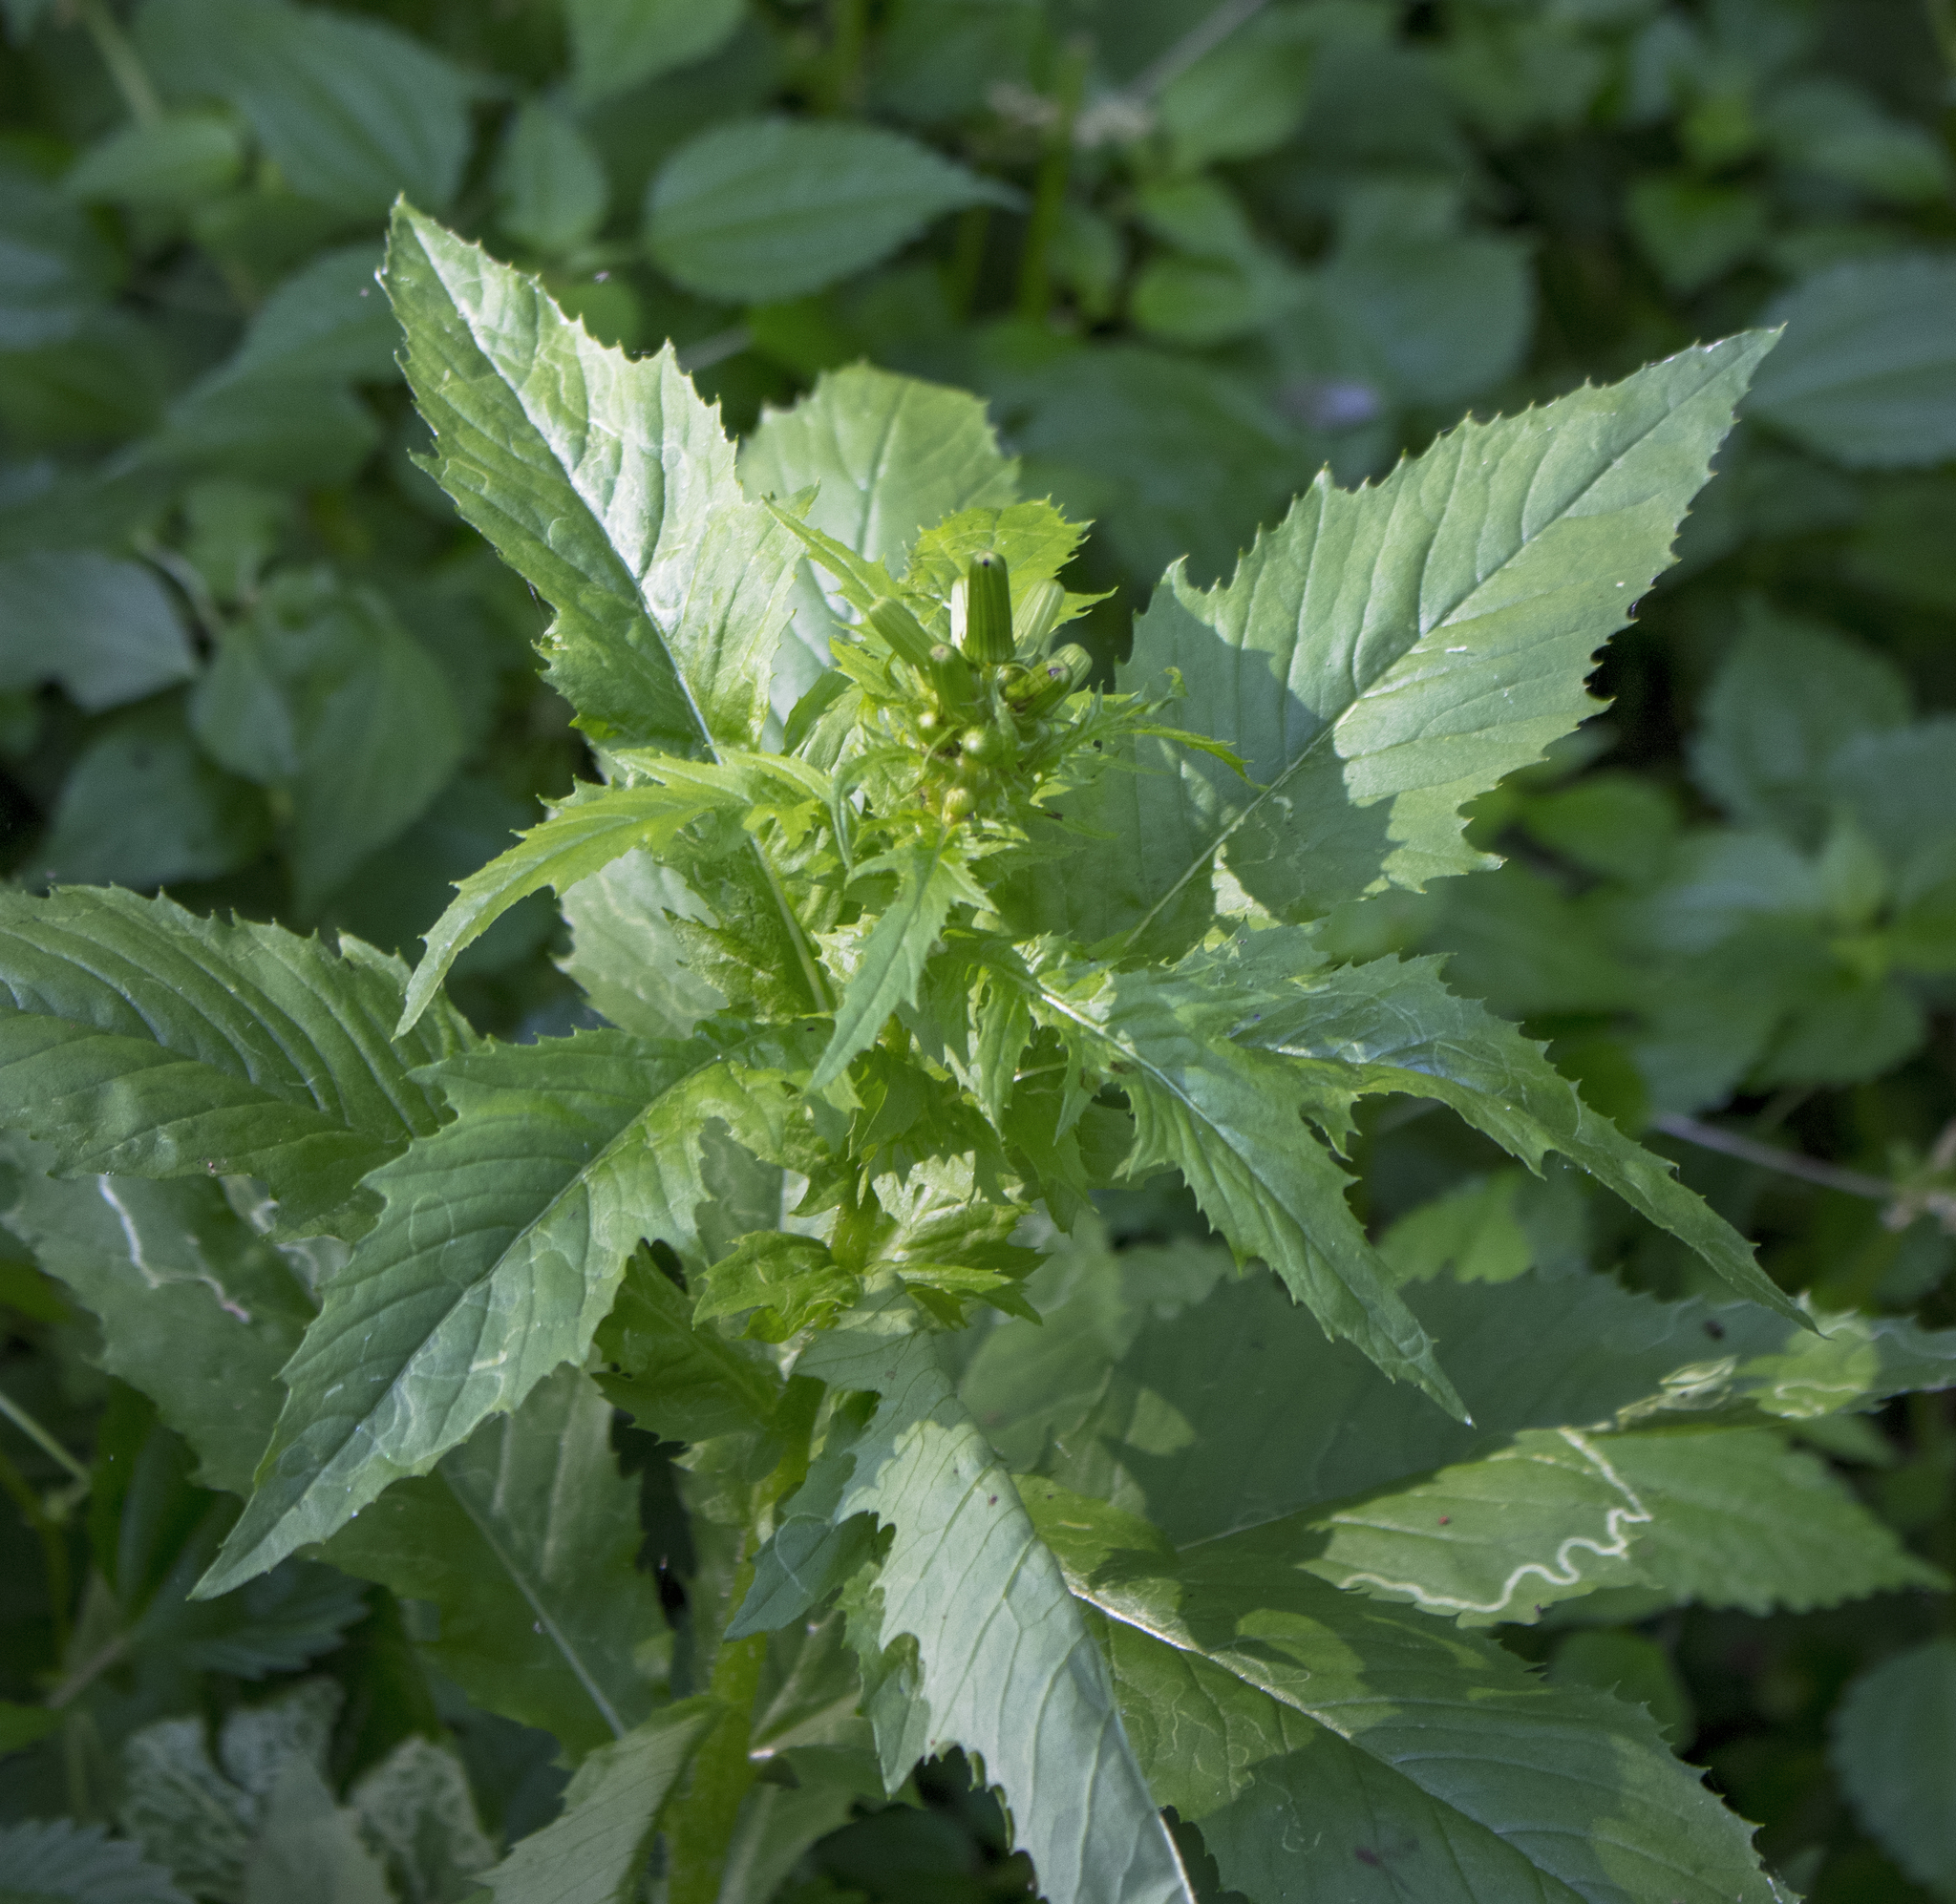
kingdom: Plantae
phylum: Tracheophyta
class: Magnoliopsida
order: Asterales
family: Asteraceae
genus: Erechtites
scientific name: Erechtites hieraciifolius
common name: American burnweed
